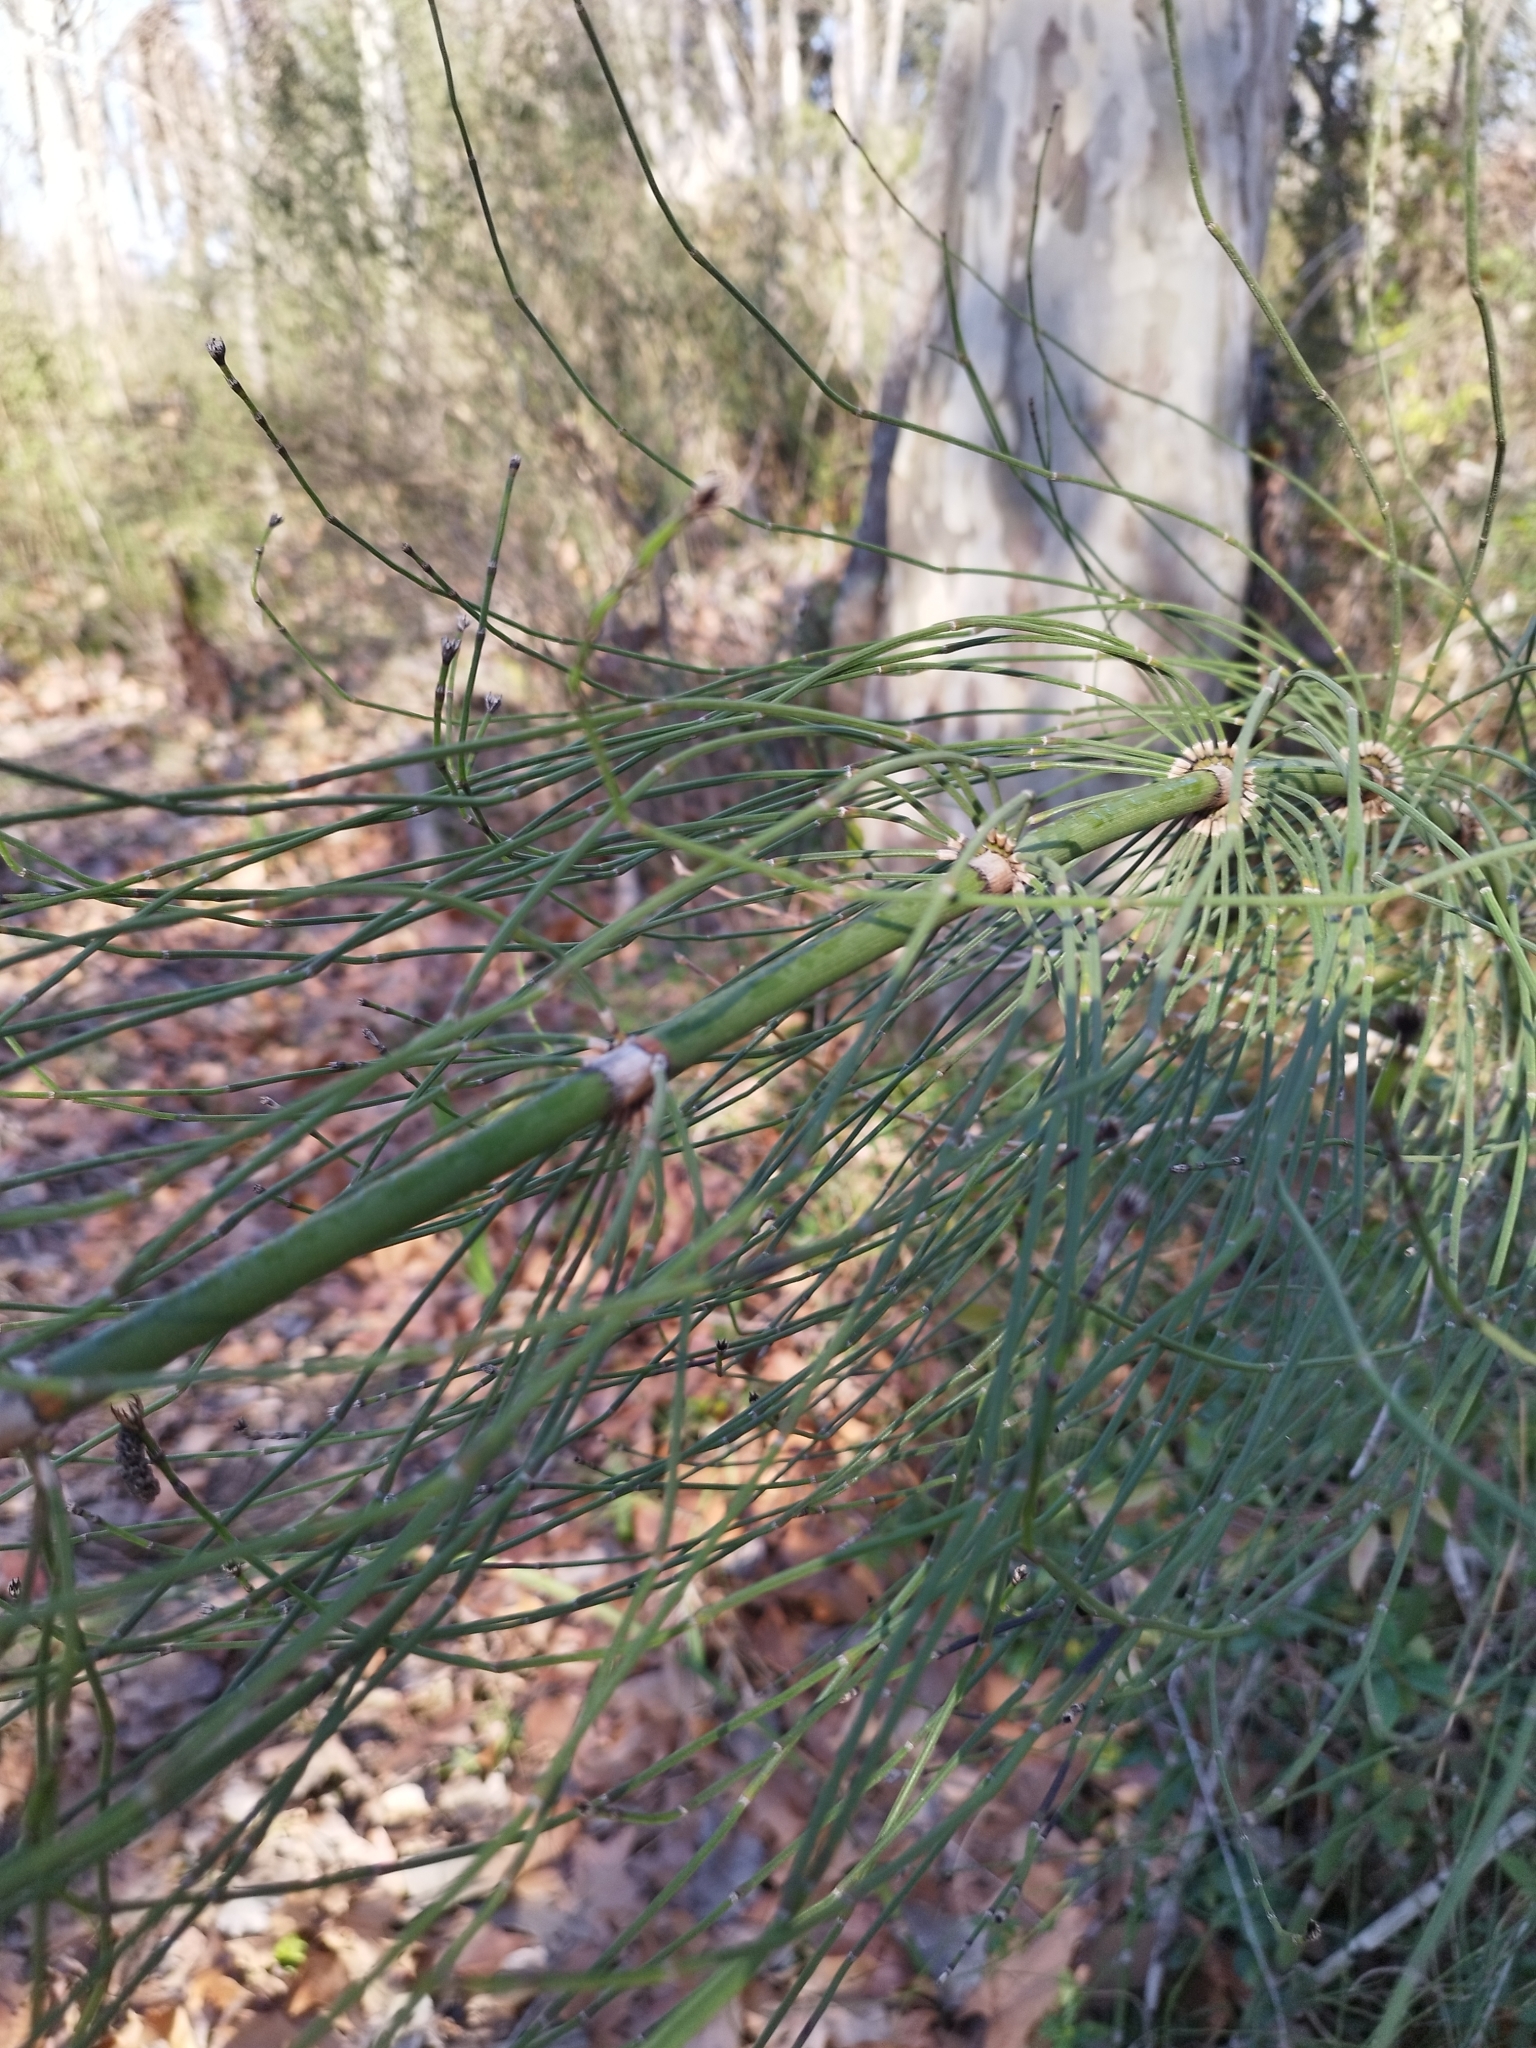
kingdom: Plantae
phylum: Tracheophyta
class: Polypodiopsida
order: Equisetales
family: Equisetaceae
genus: Equisetum
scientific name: Equisetum giganteum
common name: Giant horsetail
